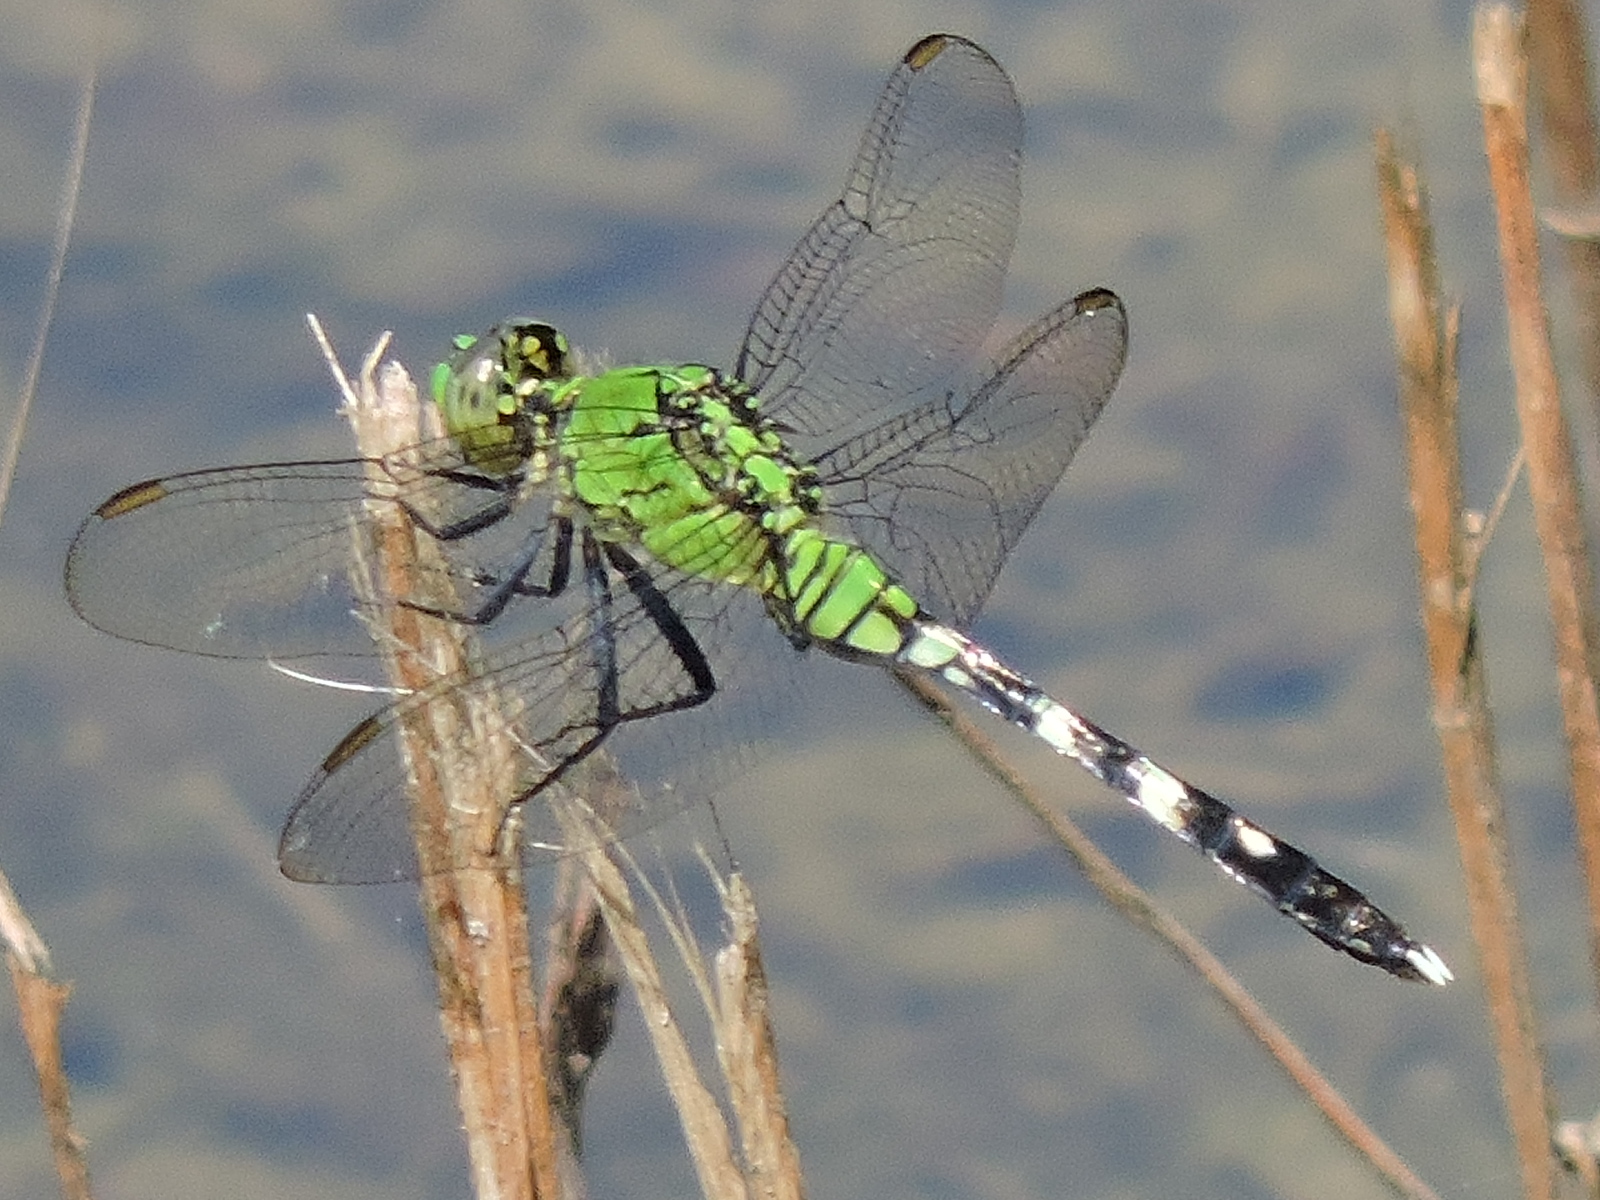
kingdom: Animalia
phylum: Arthropoda
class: Insecta
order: Odonata
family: Libellulidae
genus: Erythemis
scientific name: Erythemis simplicicollis
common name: Eastern pondhawk
